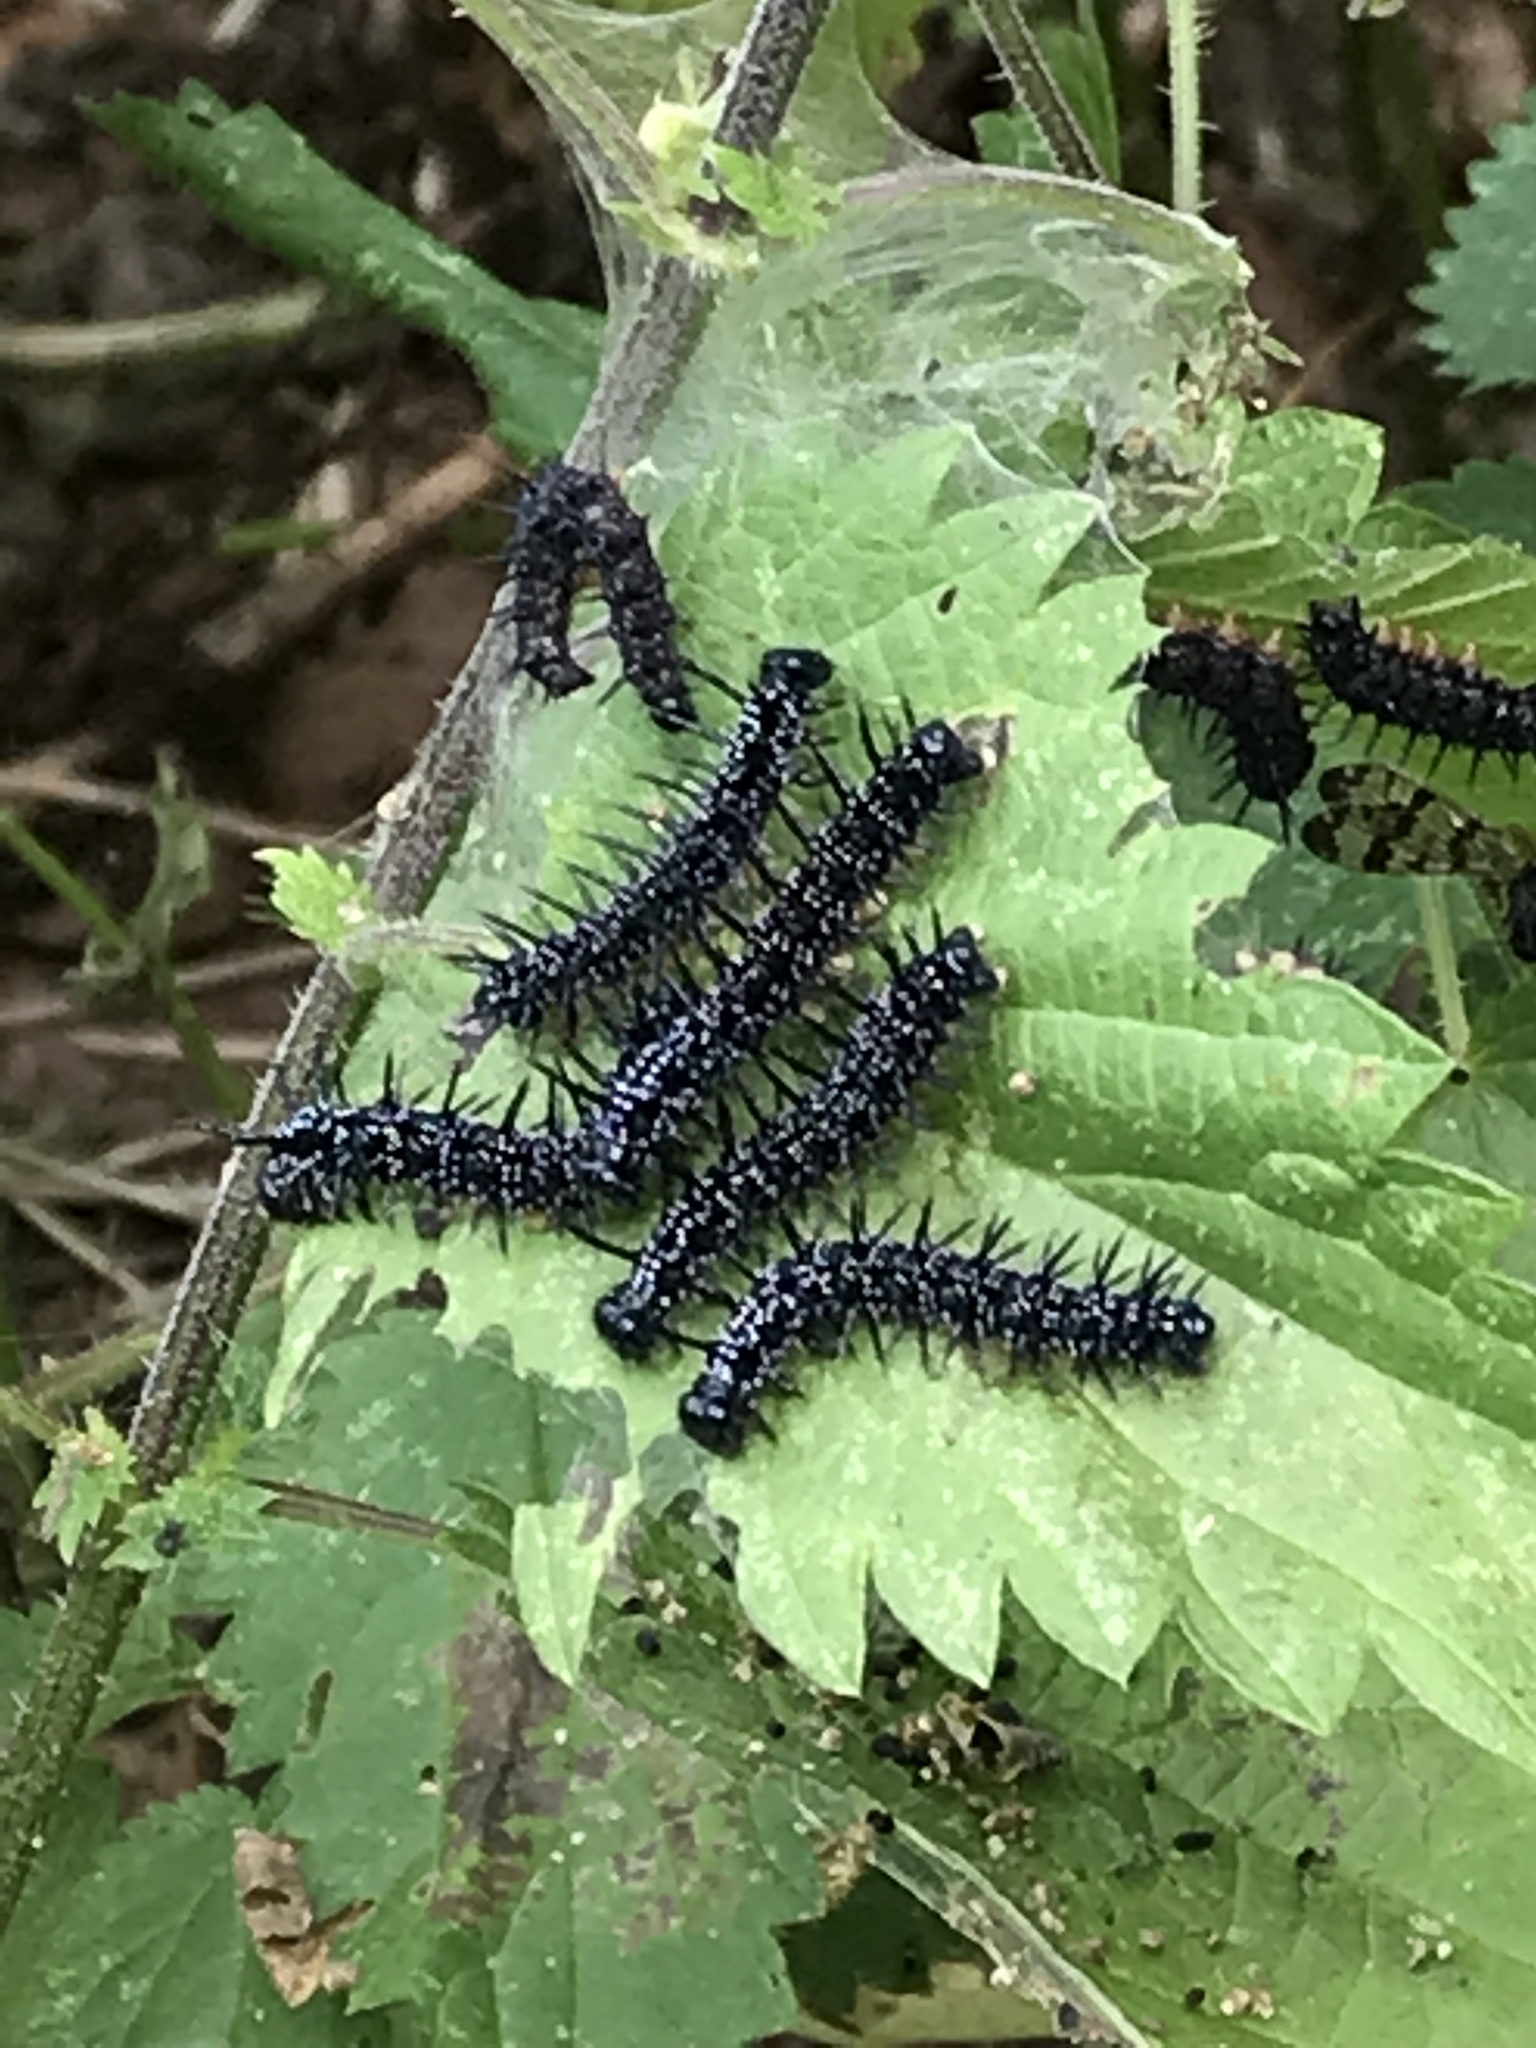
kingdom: Animalia
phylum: Arthropoda
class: Insecta
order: Lepidoptera
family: Nymphalidae
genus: Aglais
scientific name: Aglais io
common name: Peacock
